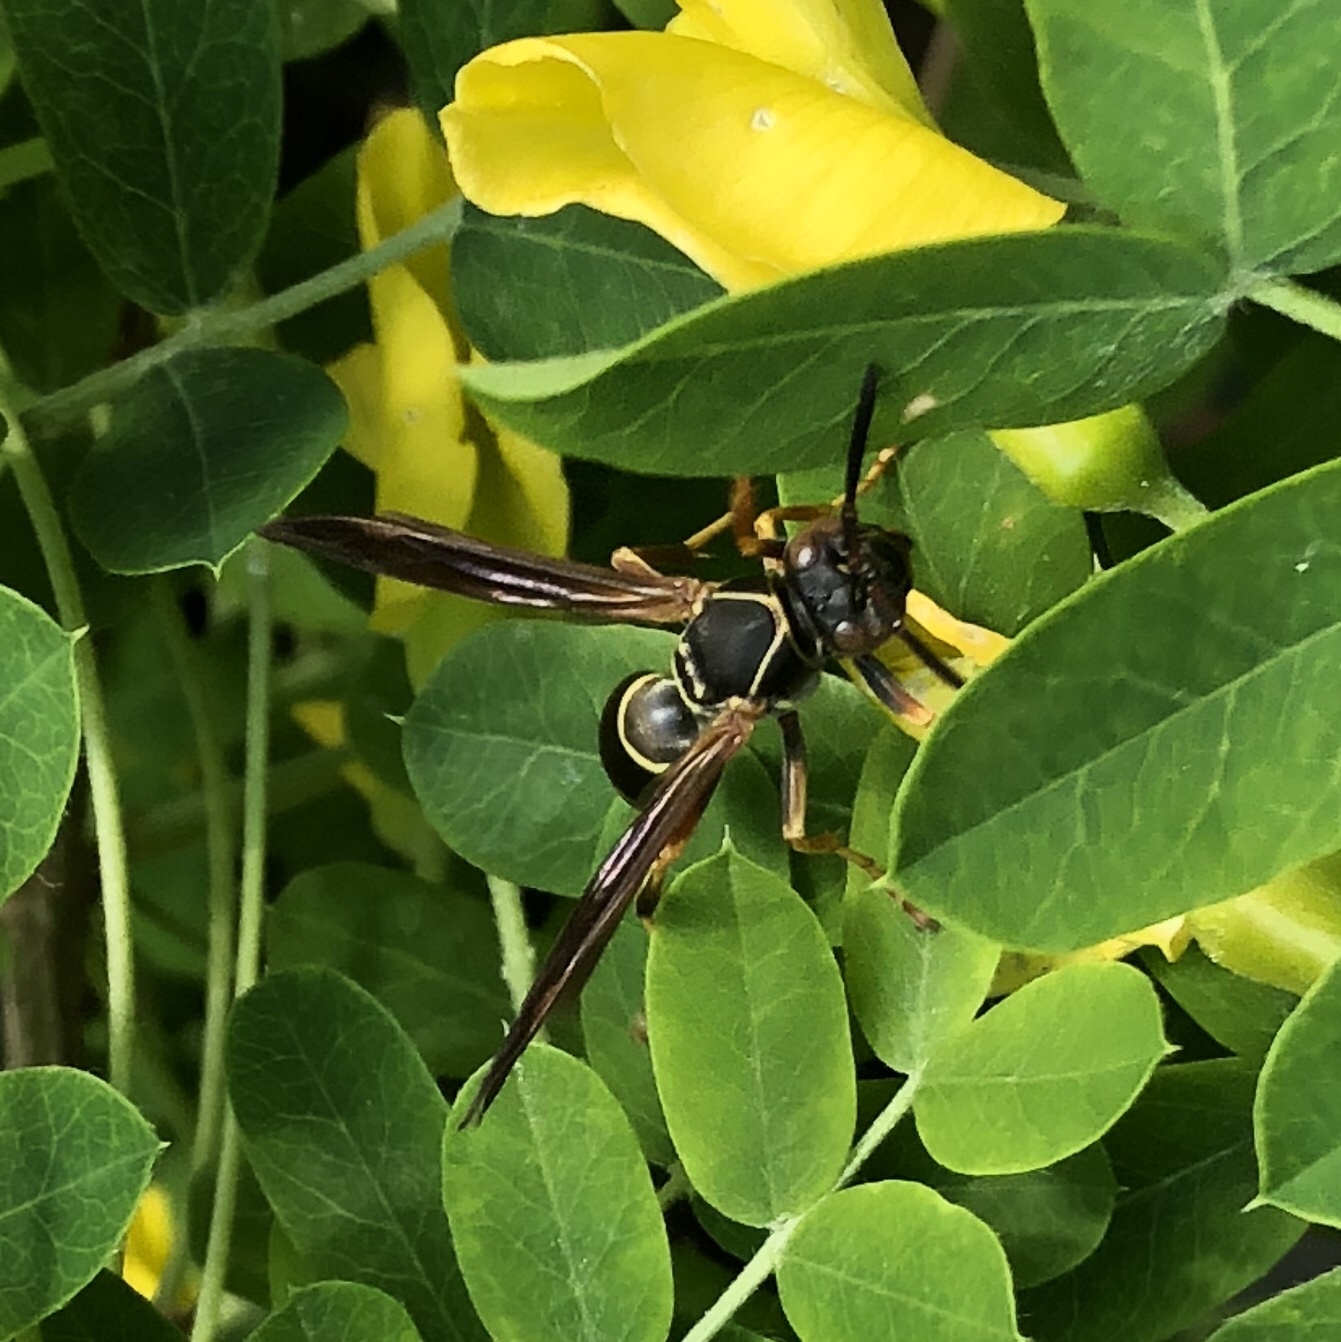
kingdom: Animalia
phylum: Arthropoda
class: Insecta
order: Hymenoptera
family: Eumenidae
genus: Polistes
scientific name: Polistes fuscatus
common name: Dark paper wasp
